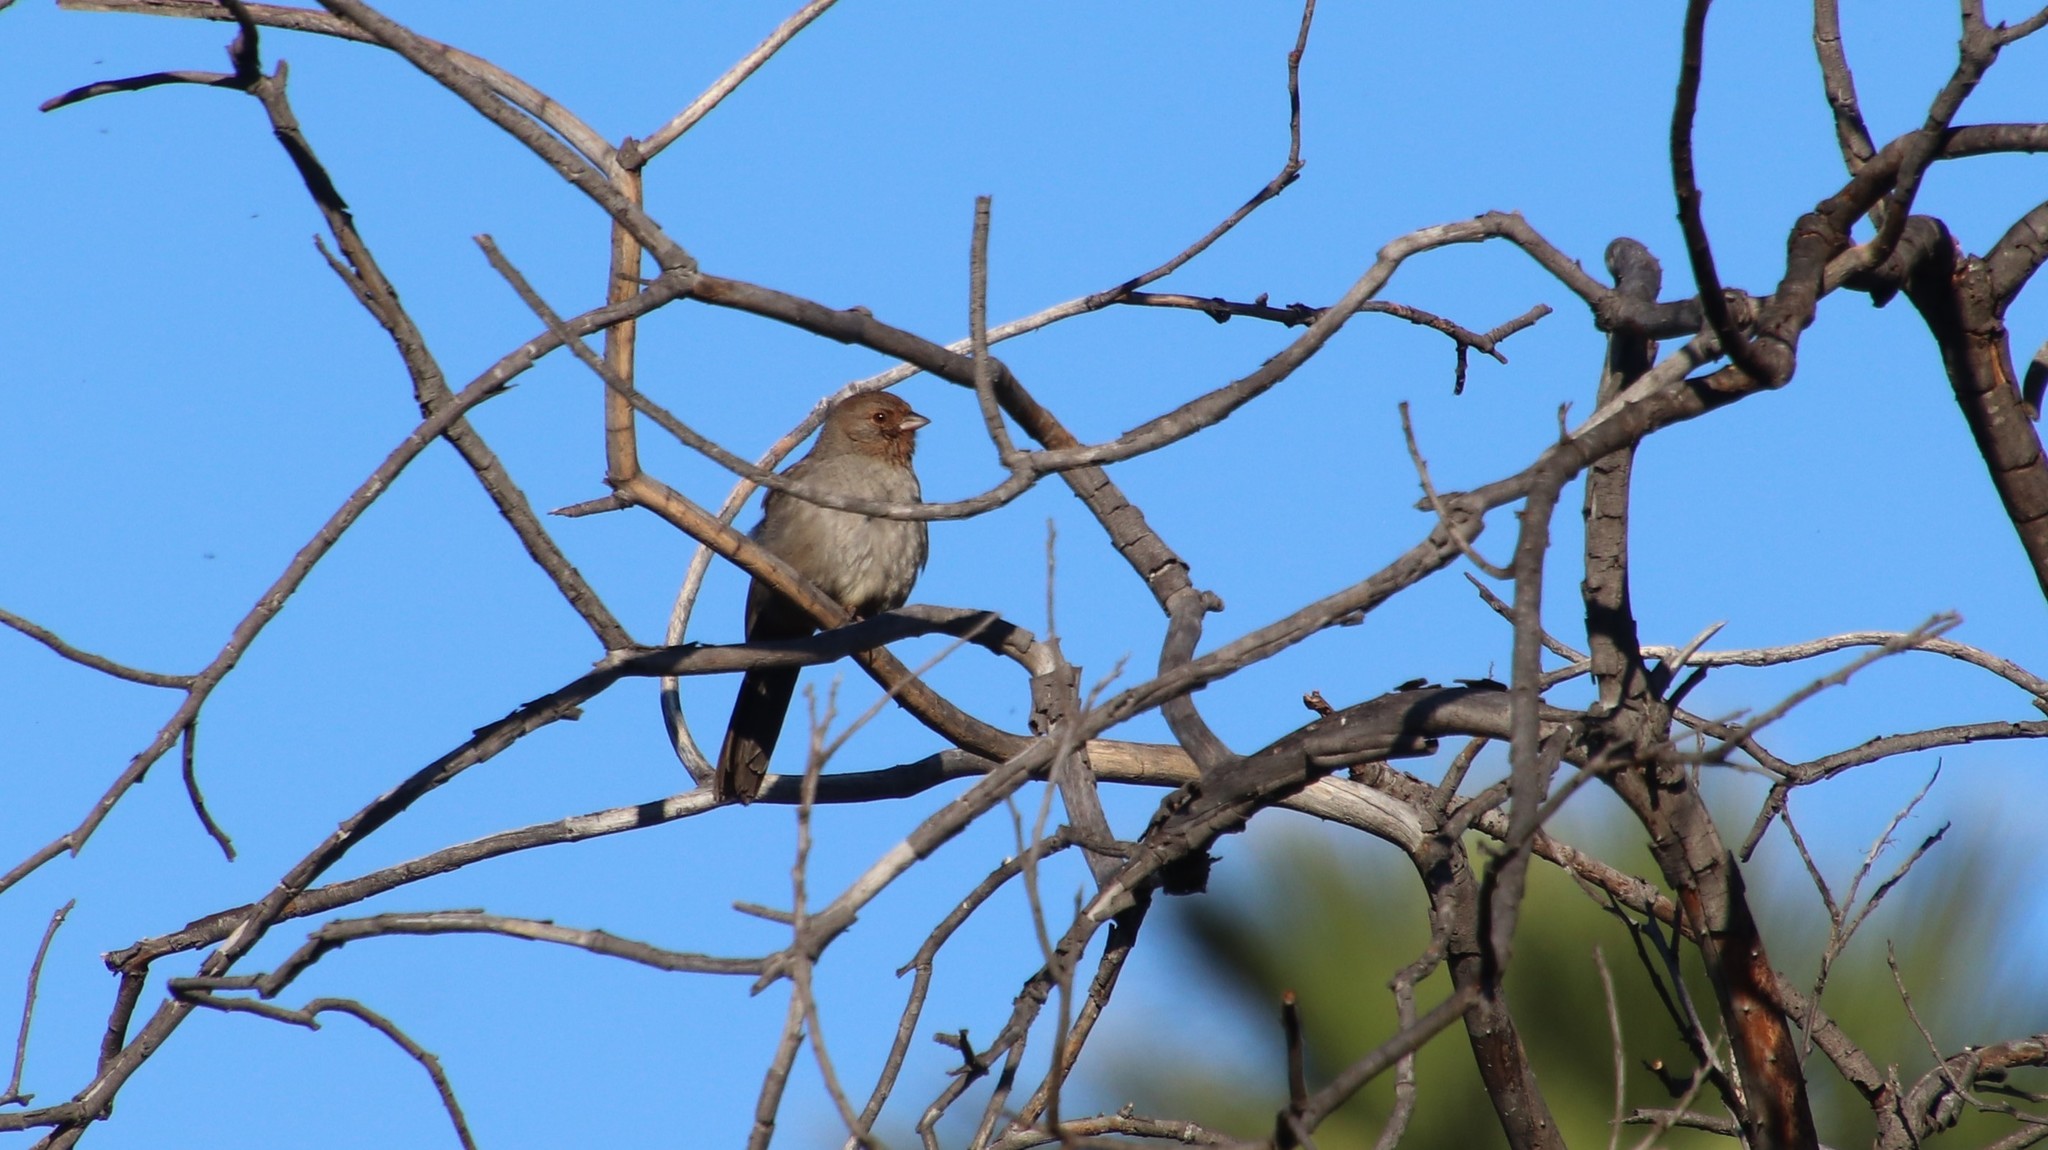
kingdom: Animalia
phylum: Chordata
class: Aves
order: Passeriformes
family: Passerellidae
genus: Melozone
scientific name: Melozone crissalis
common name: California towhee
